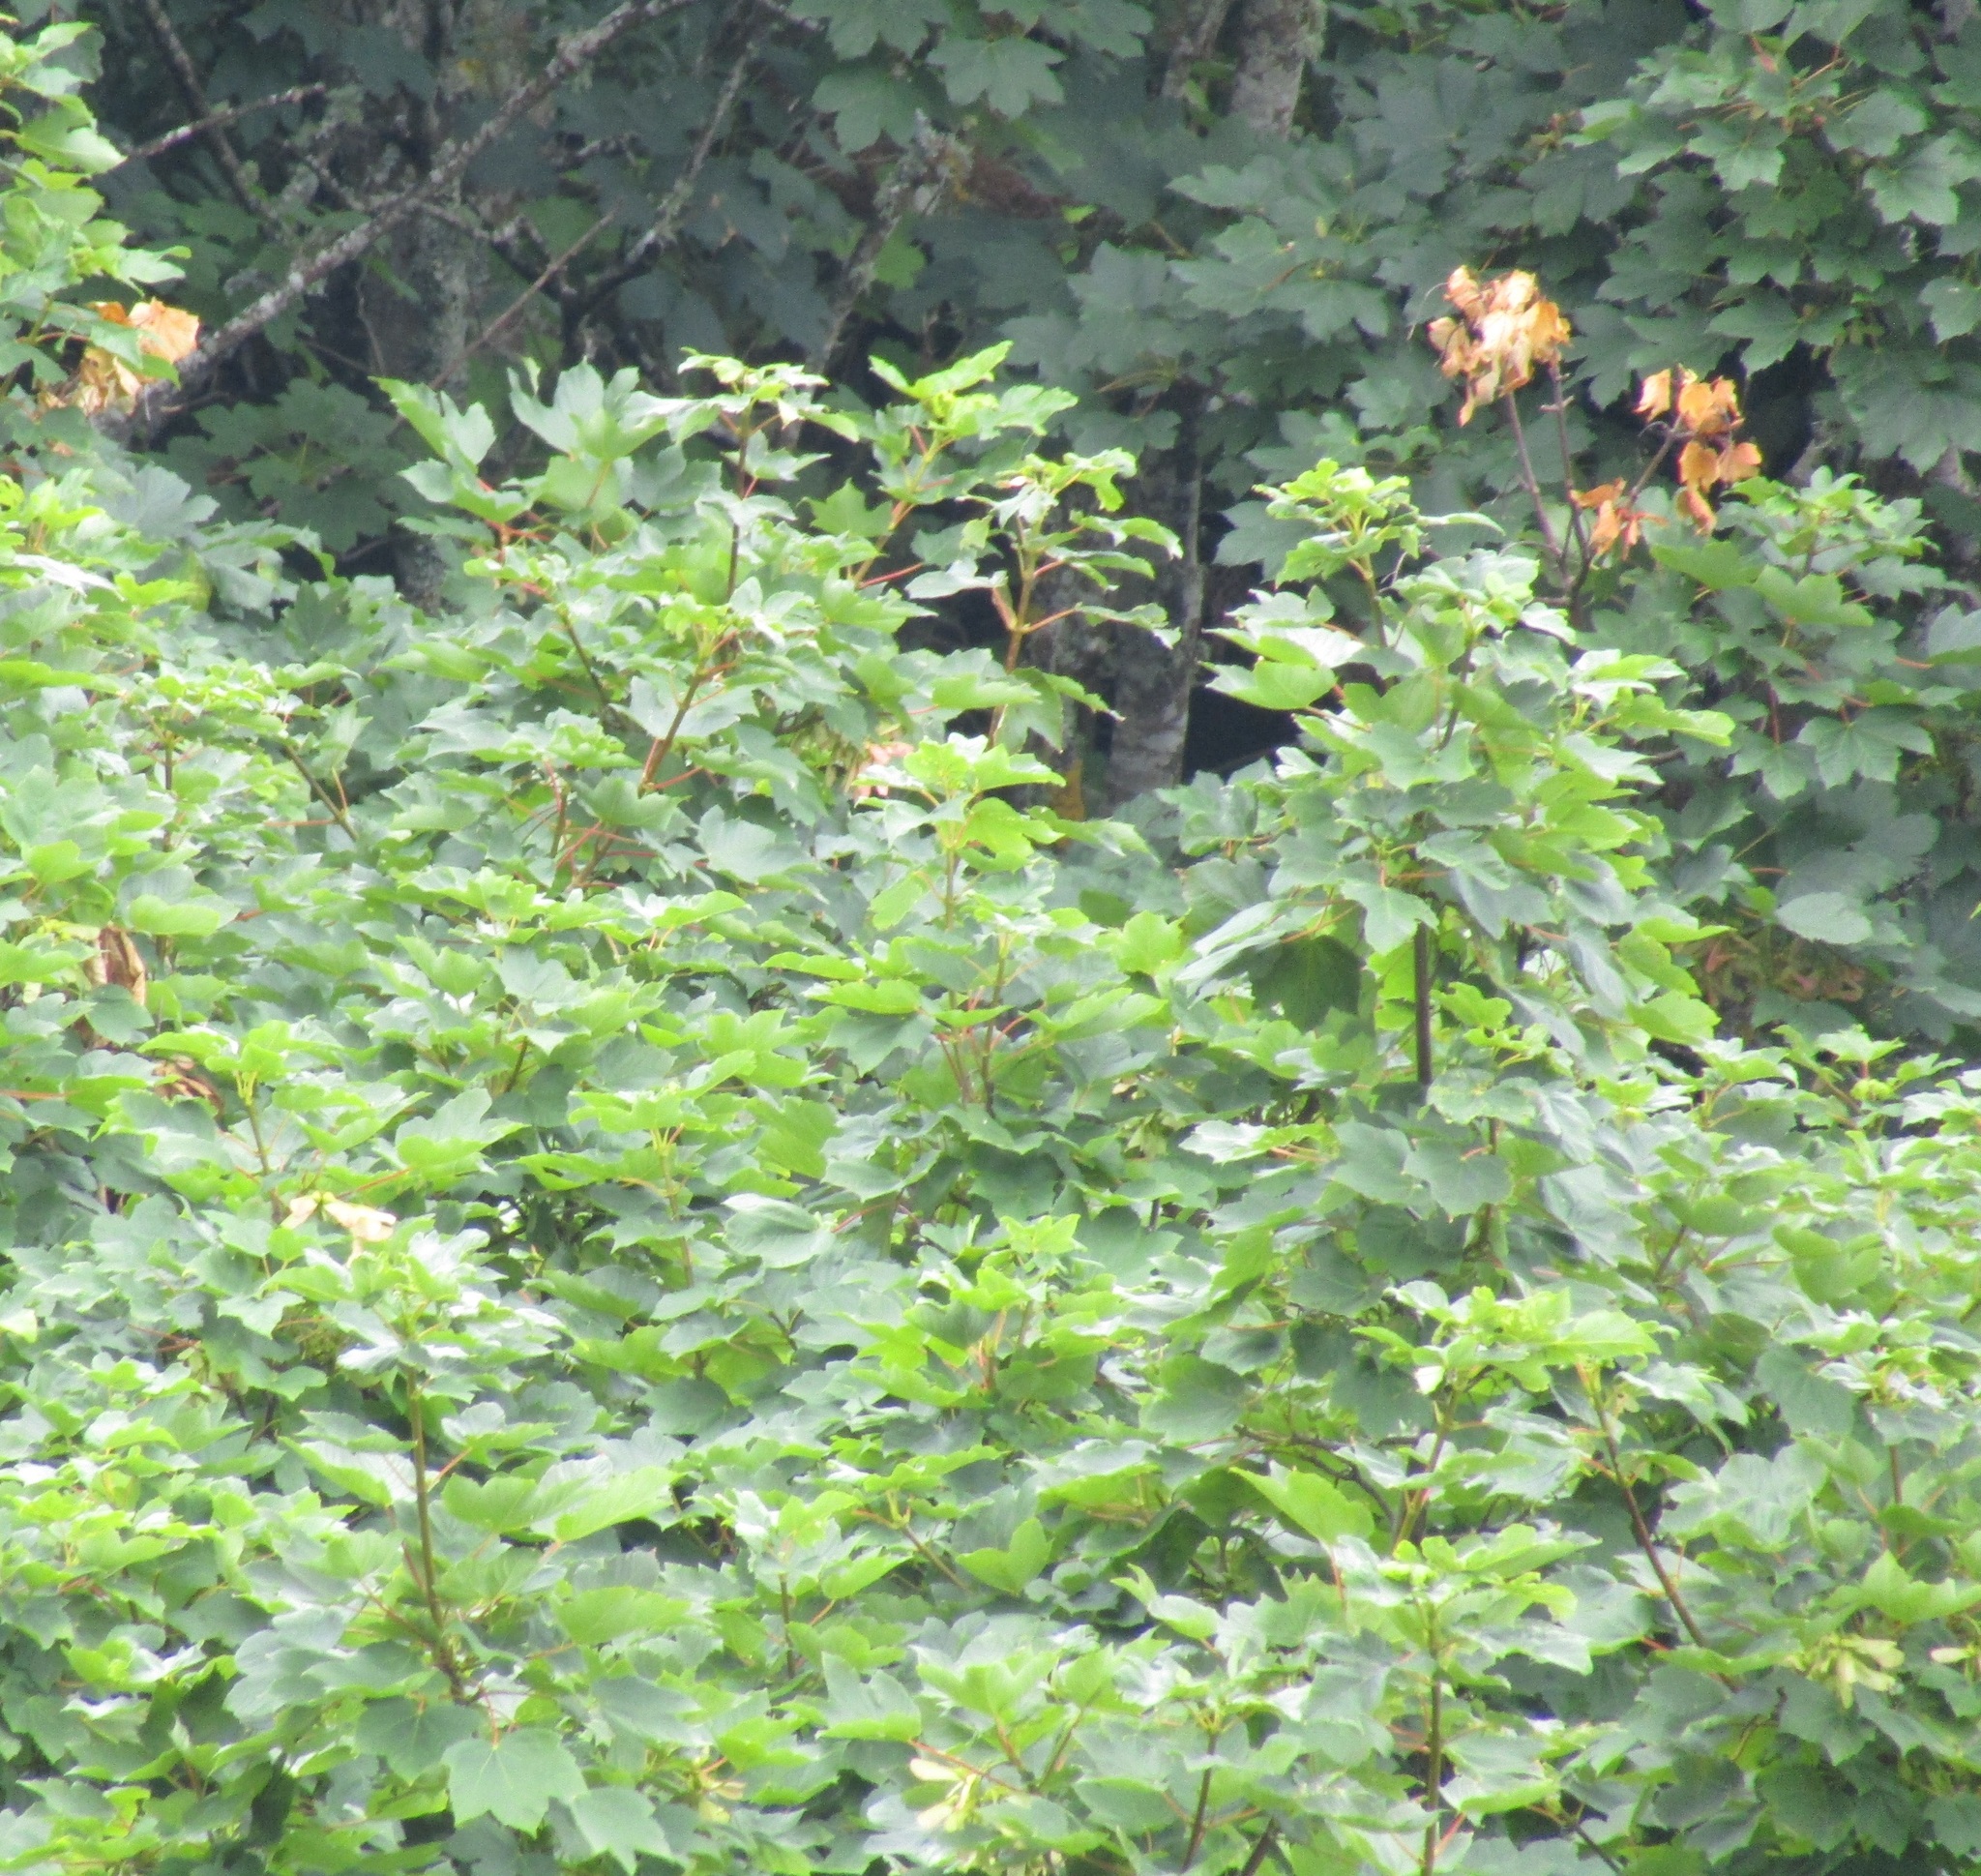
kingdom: Plantae
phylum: Tracheophyta
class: Magnoliopsida
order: Sapindales
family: Sapindaceae
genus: Acer
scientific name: Acer pseudoplatanus
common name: Sycamore
